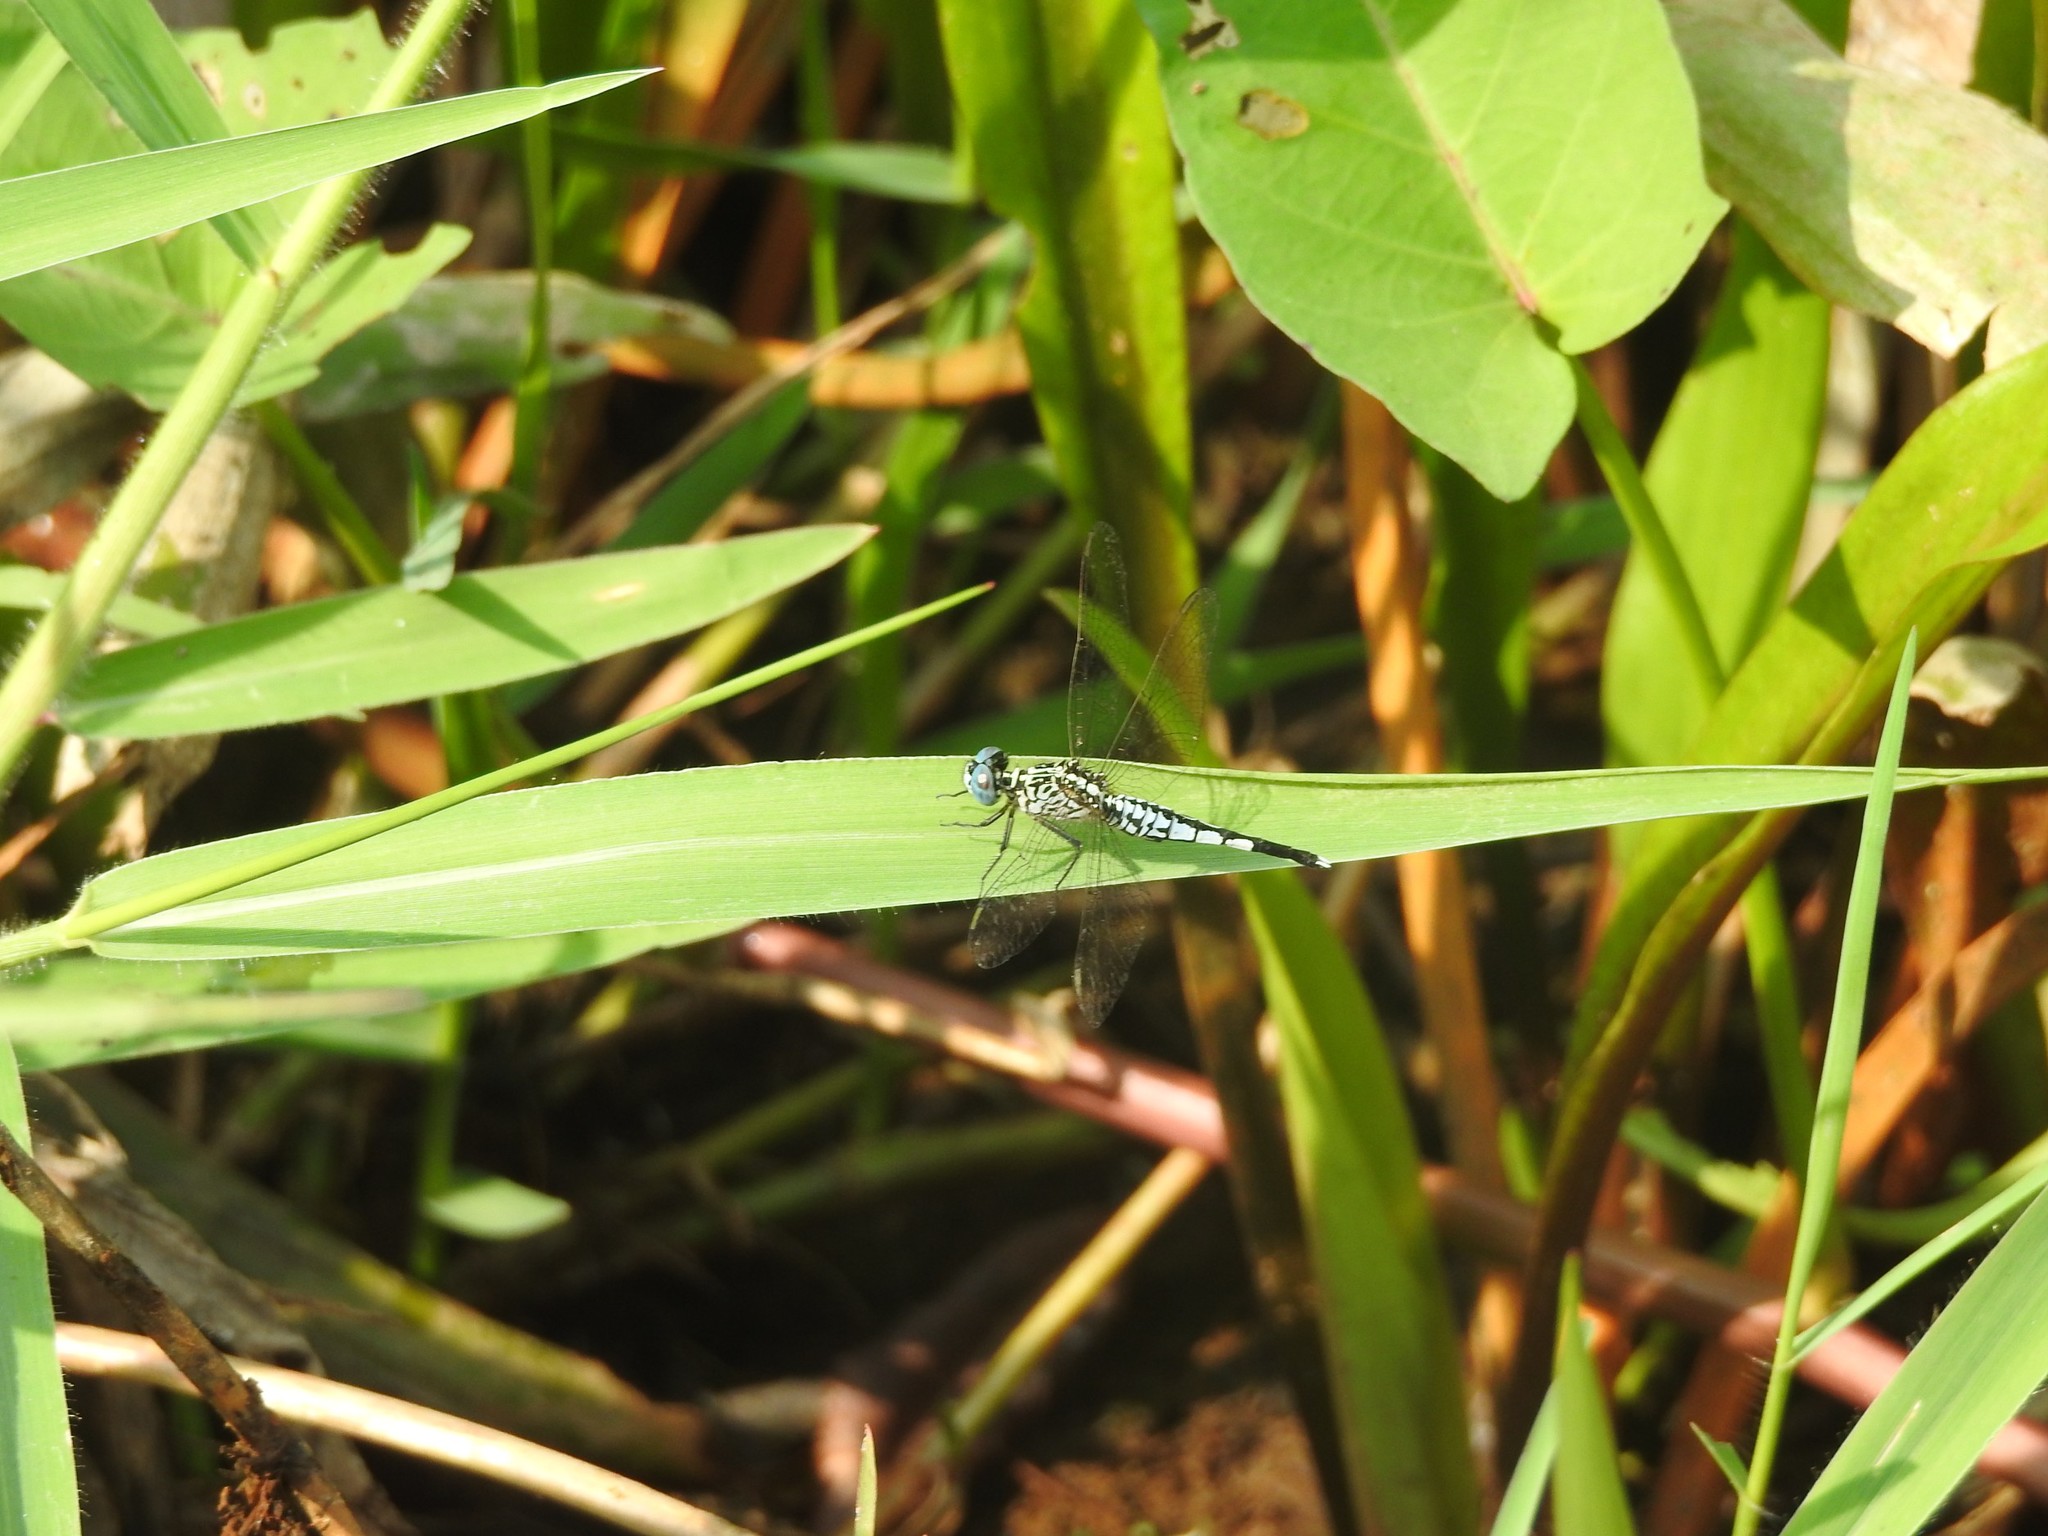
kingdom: Animalia
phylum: Arthropoda
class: Insecta
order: Odonata
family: Libellulidae
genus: Acisoma
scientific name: Acisoma panorpoides
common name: Asian pintail
